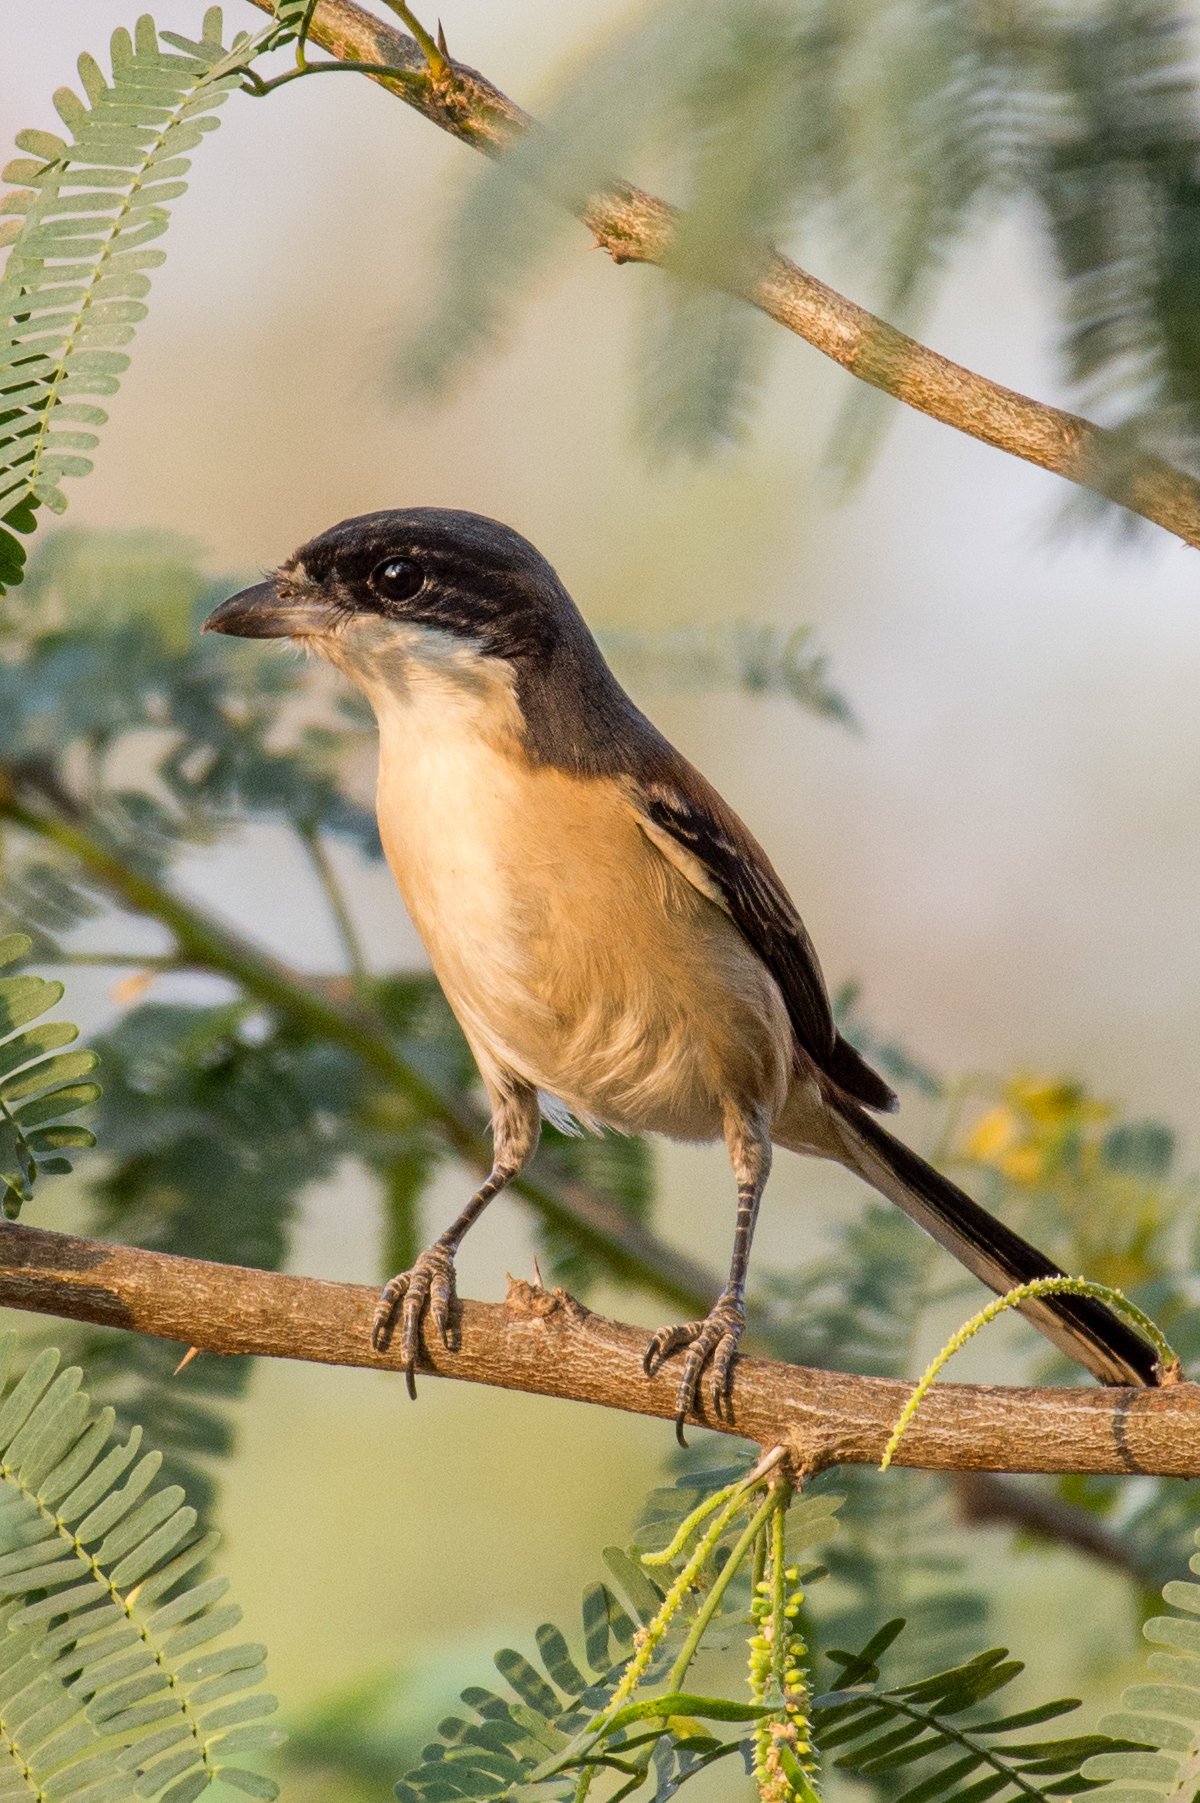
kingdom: Animalia
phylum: Chordata
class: Aves
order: Passeriformes
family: Laniidae
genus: Lanius
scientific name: Lanius schach
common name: Long-tailed shrike
